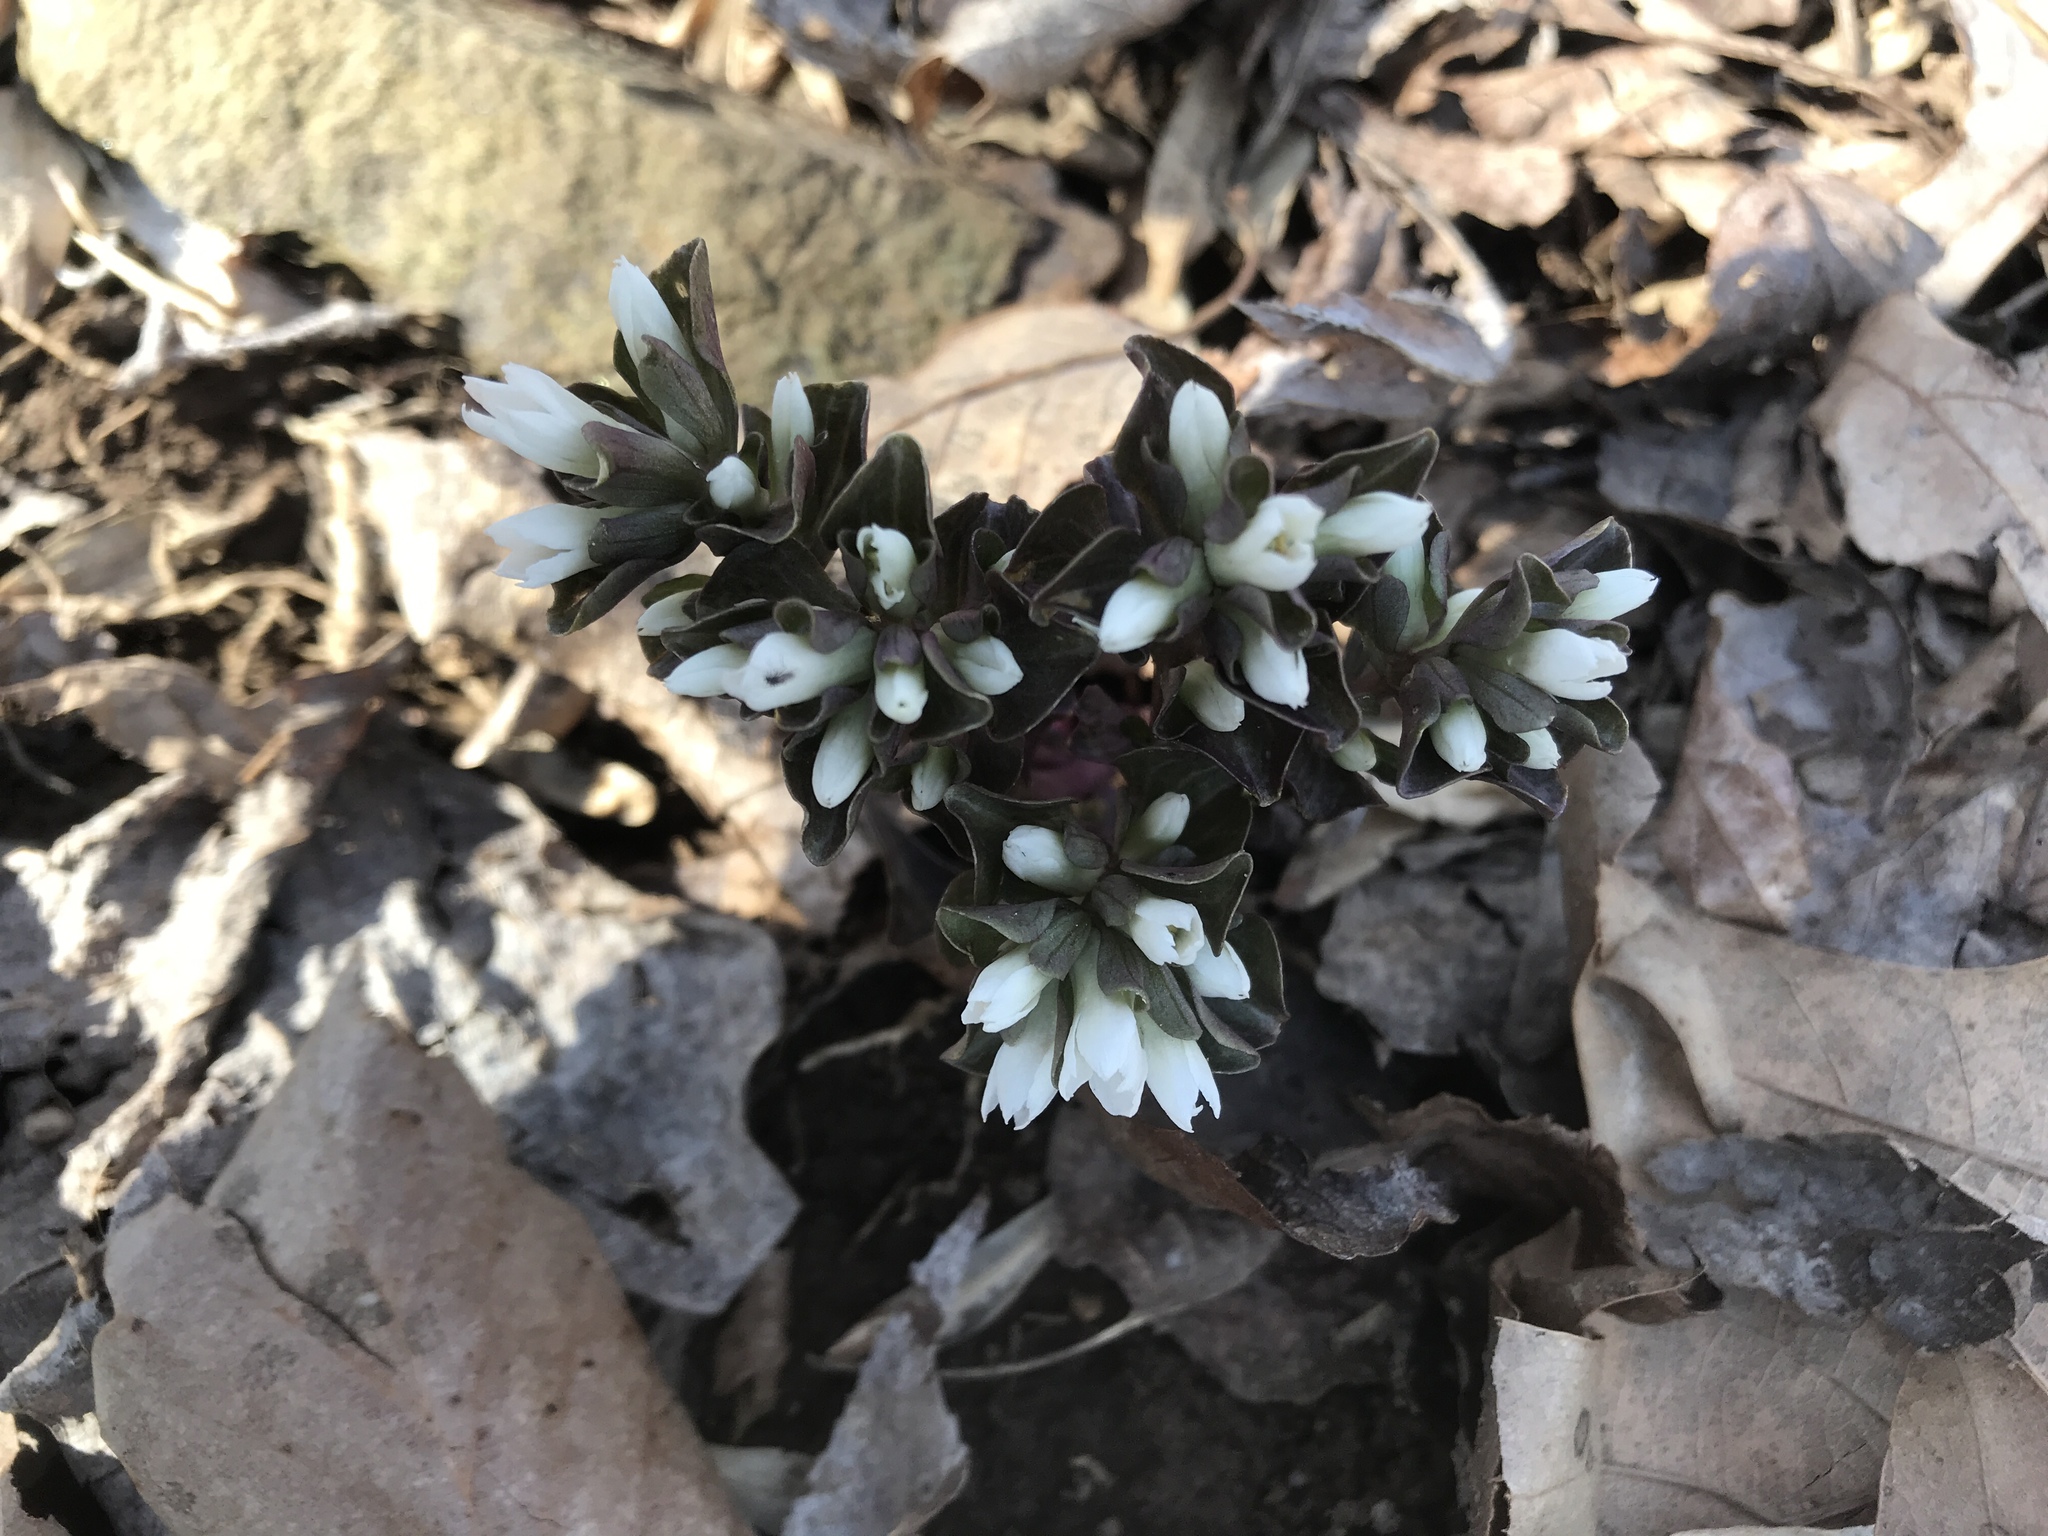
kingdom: Plantae
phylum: Tracheophyta
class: Magnoliopsida
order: Gentianales
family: Gentianaceae
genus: Obolaria
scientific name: Obolaria virginica
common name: Pennywort
